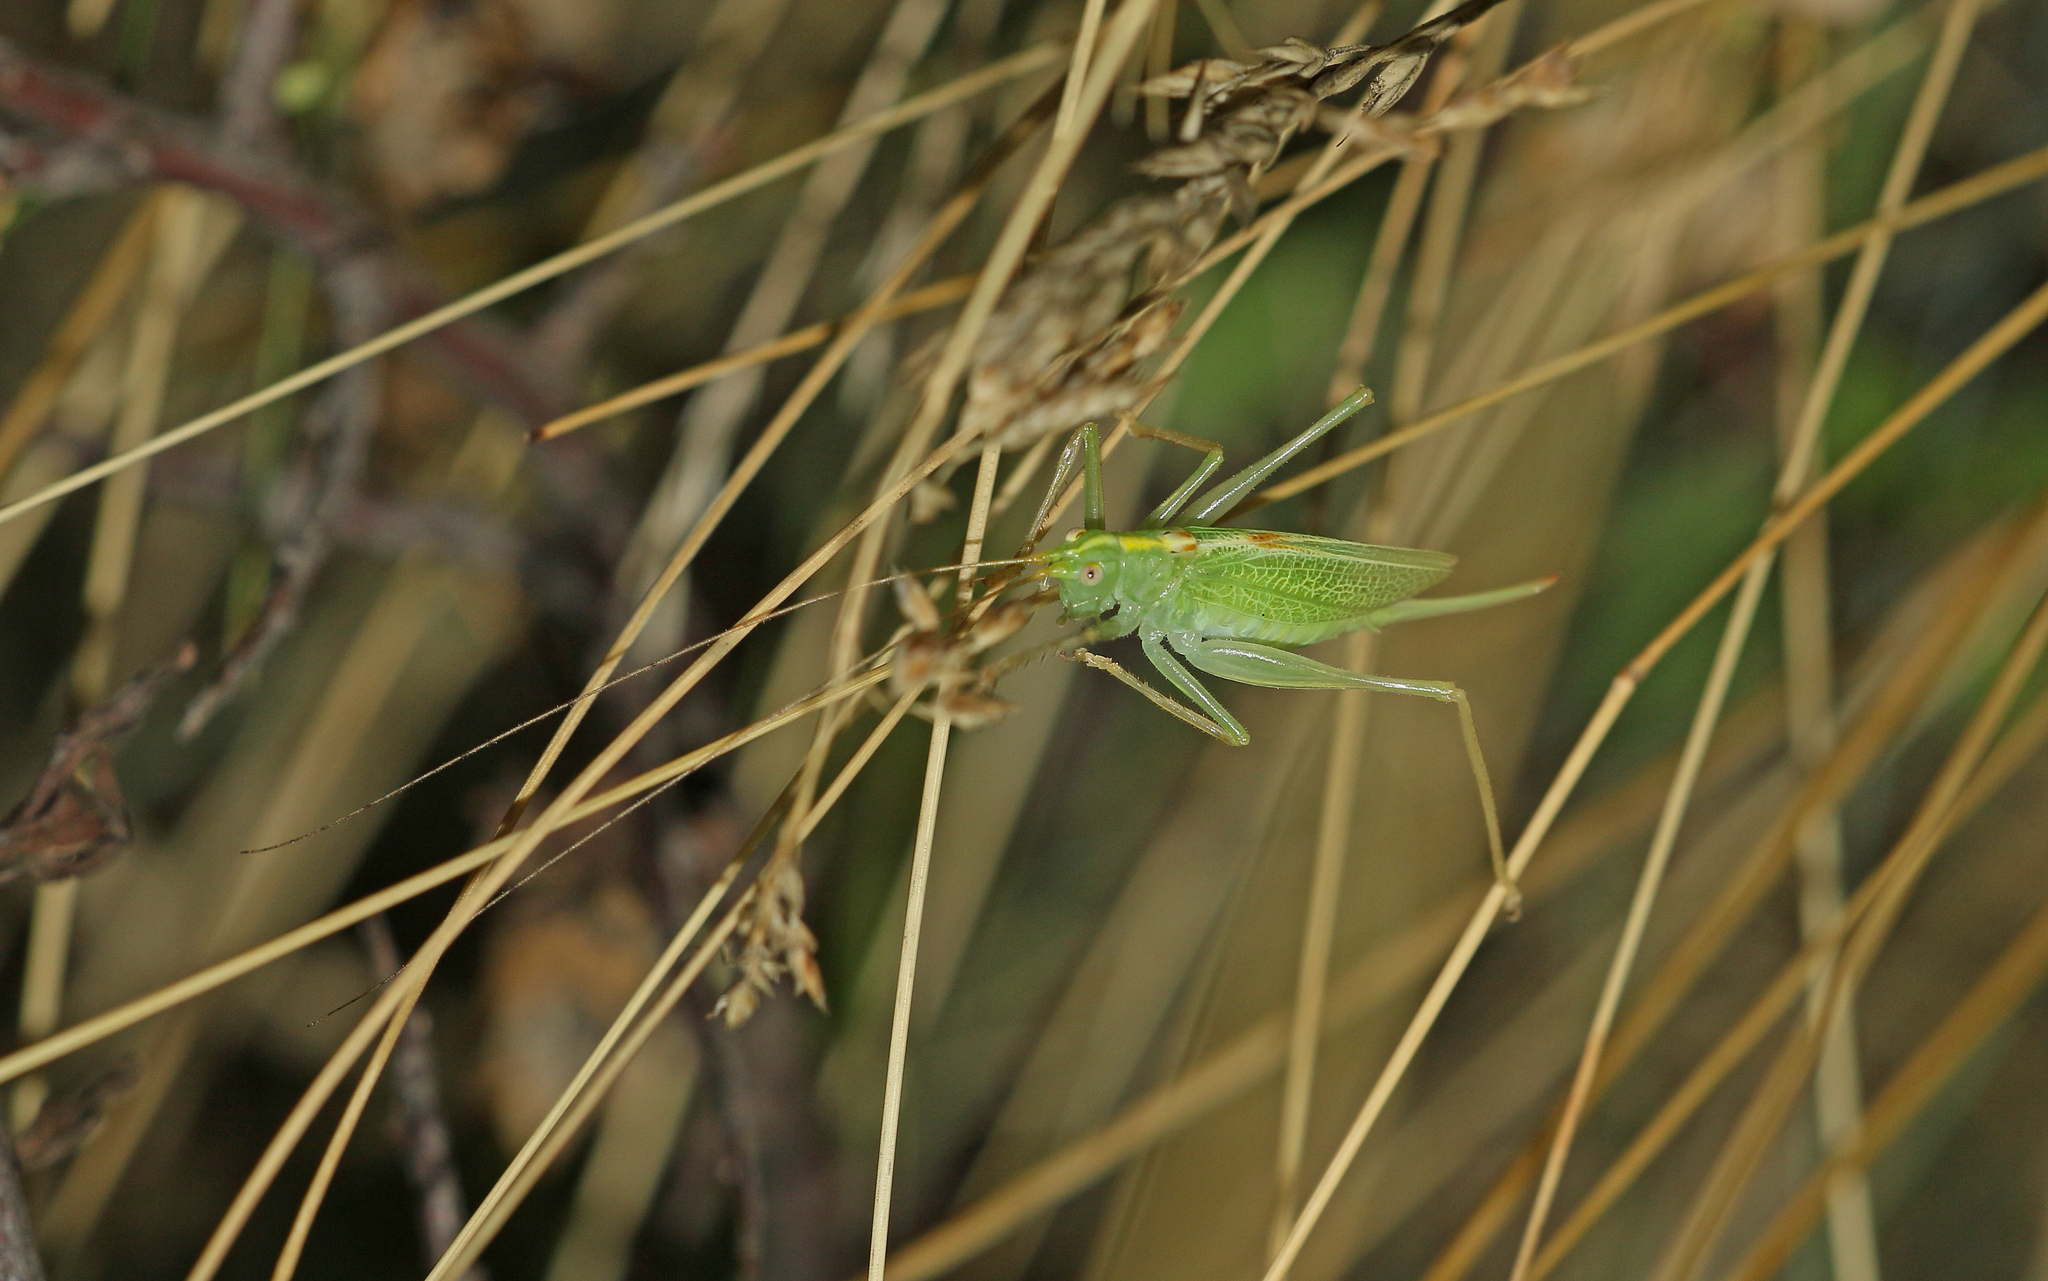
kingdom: Animalia
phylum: Arthropoda
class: Insecta
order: Orthoptera
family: Tettigoniidae
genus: Meconema
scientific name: Meconema thalassinum
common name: Oak bush-cricket
